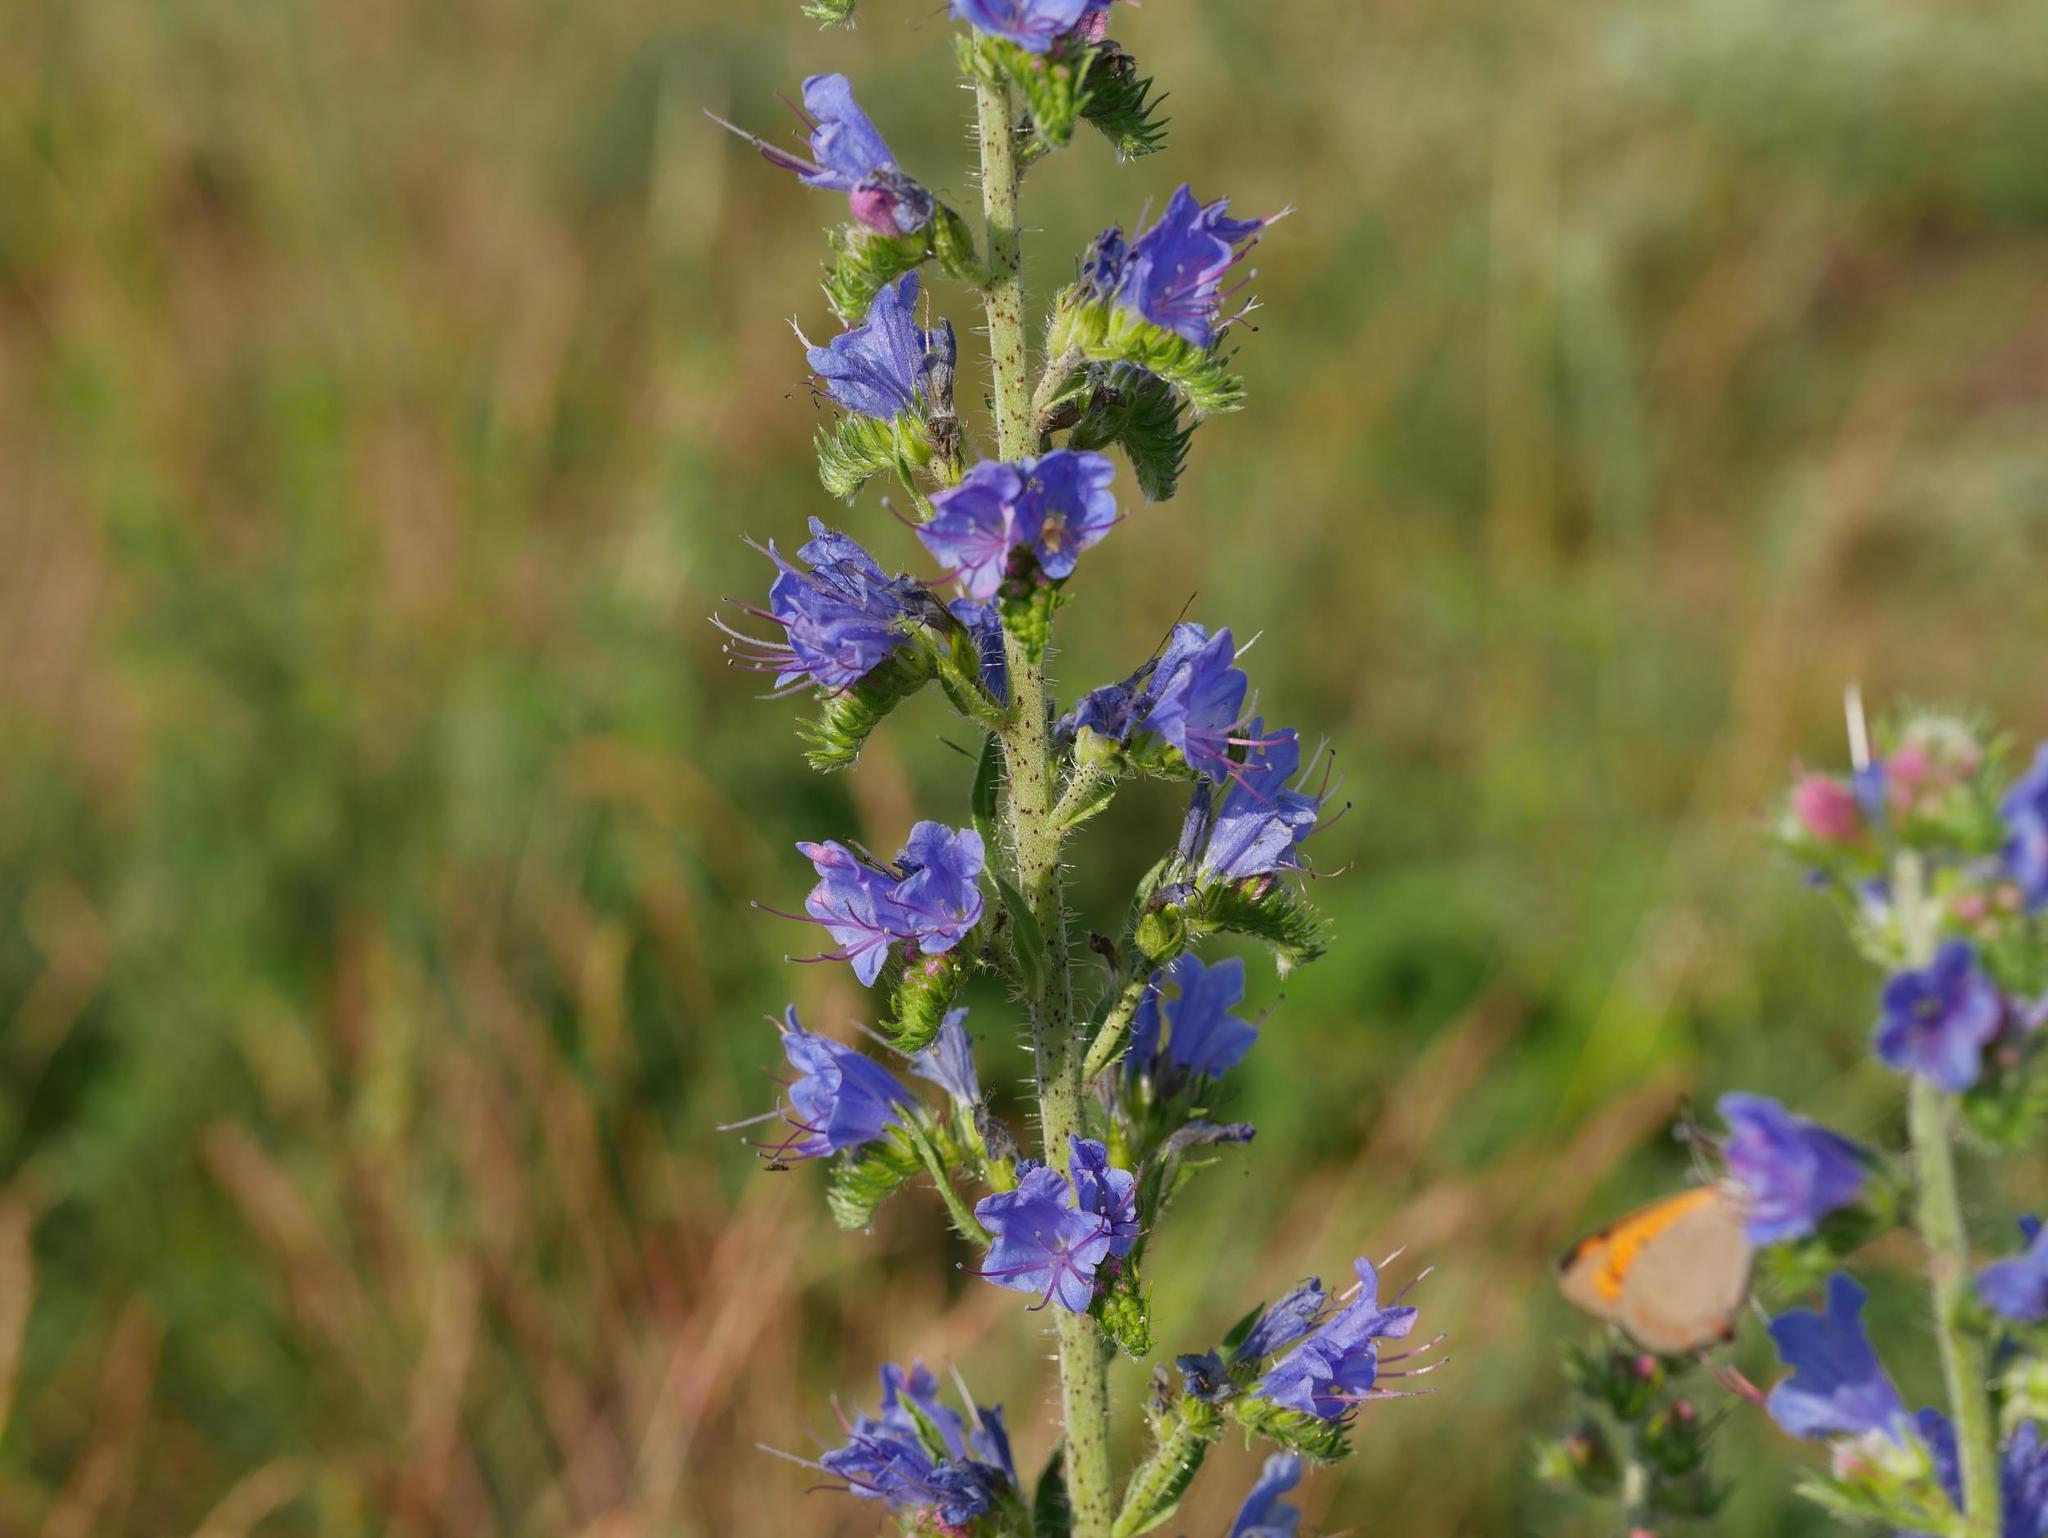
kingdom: Plantae
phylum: Tracheophyta
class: Magnoliopsida
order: Boraginales
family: Boraginaceae
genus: Echium
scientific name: Echium vulgare
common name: Common viper's bugloss
